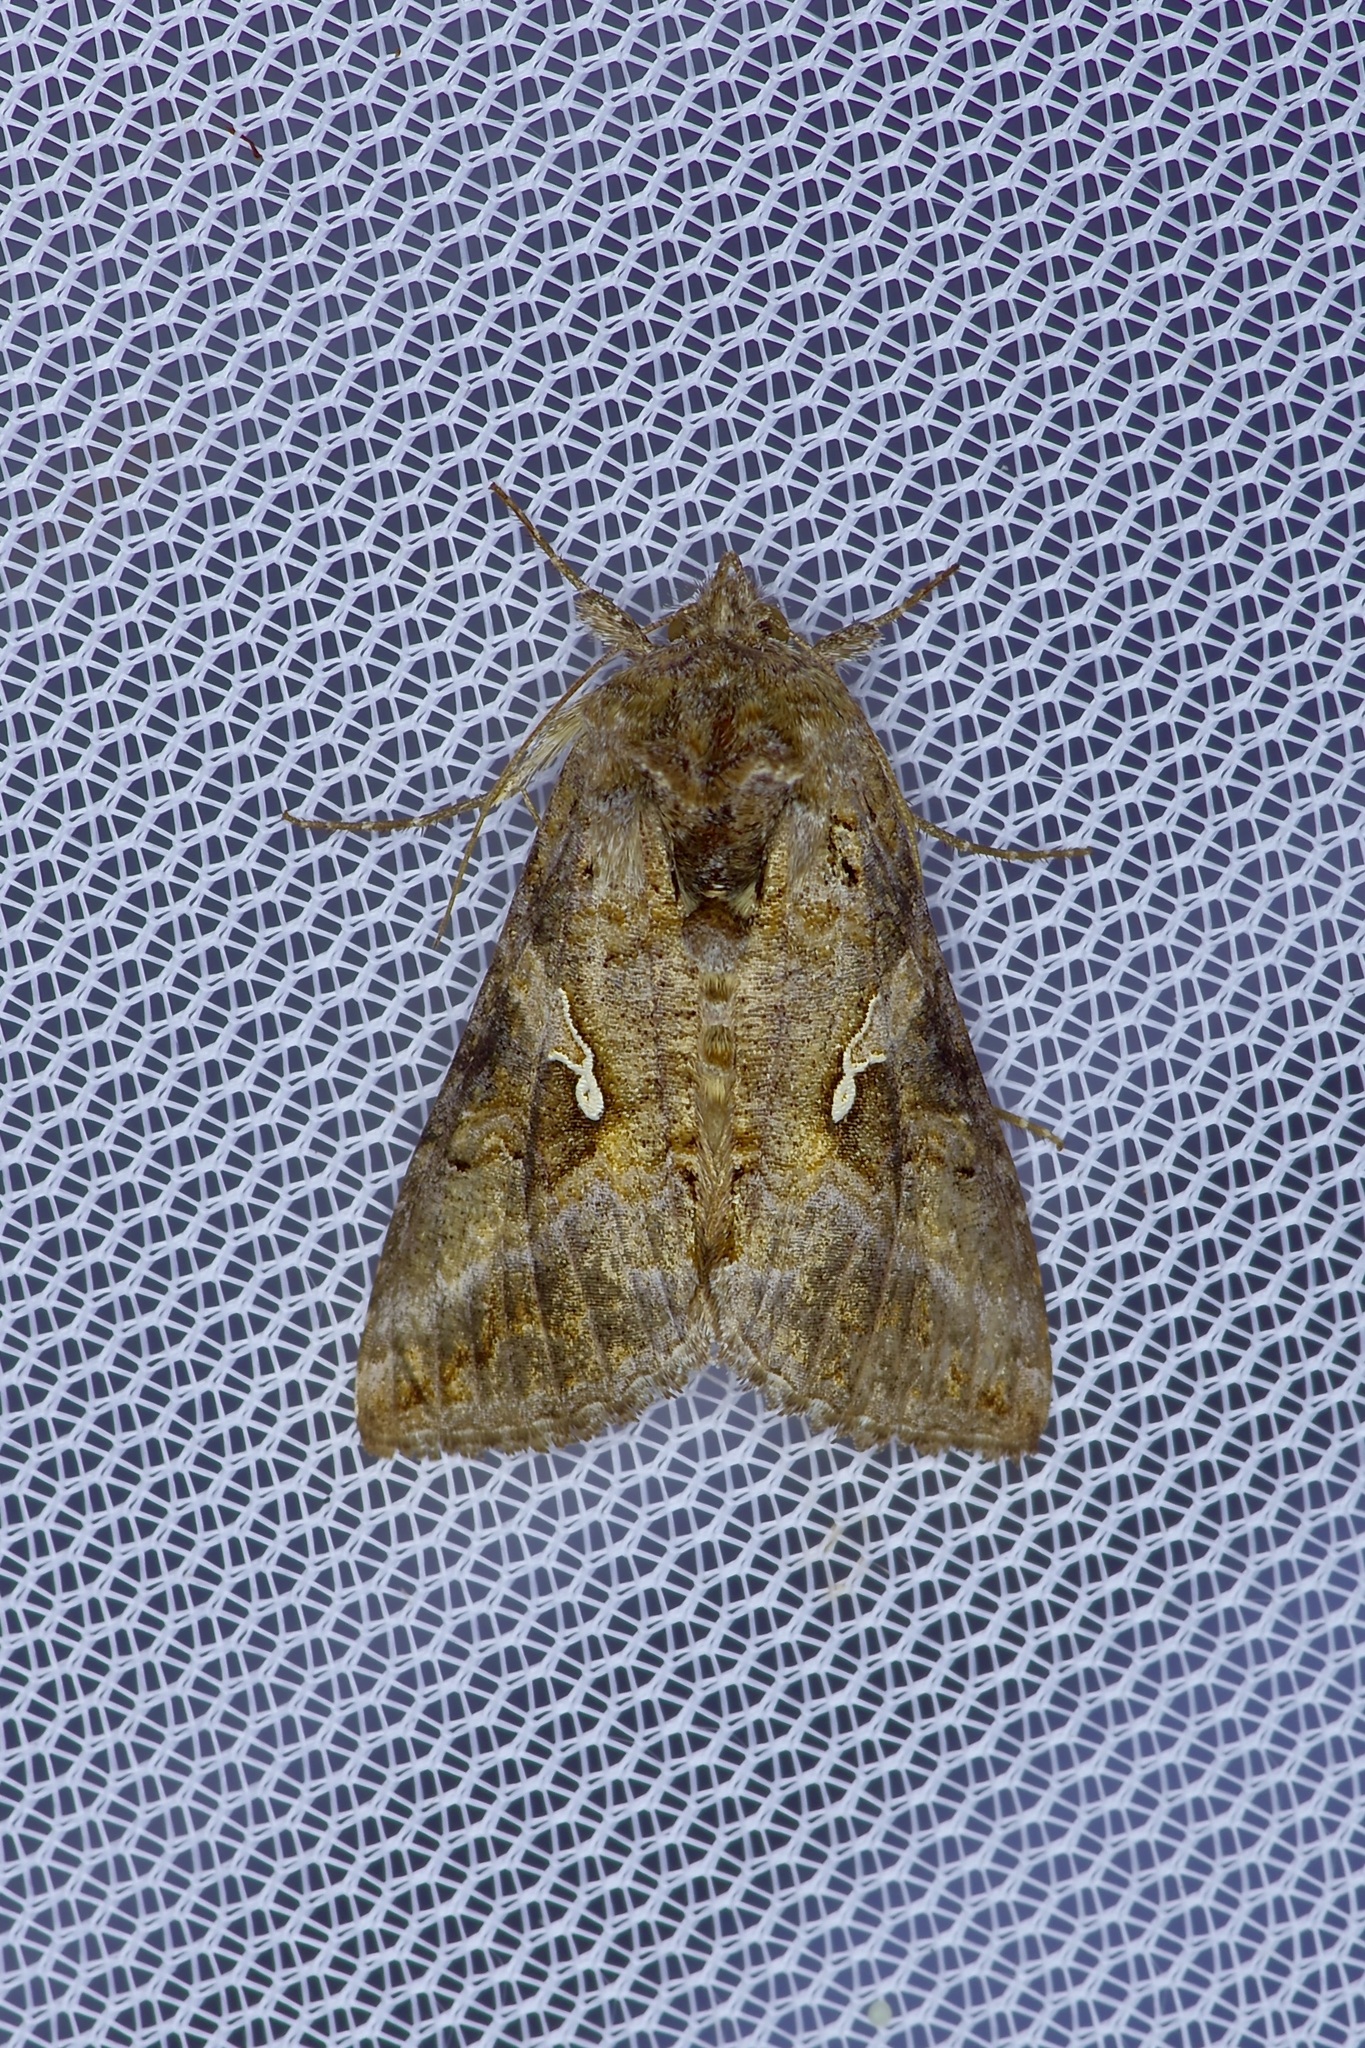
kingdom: Animalia
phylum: Arthropoda
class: Insecta
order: Lepidoptera
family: Noctuidae
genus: Rachiplusia
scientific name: Rachiplusia ou
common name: Gray looper moth
